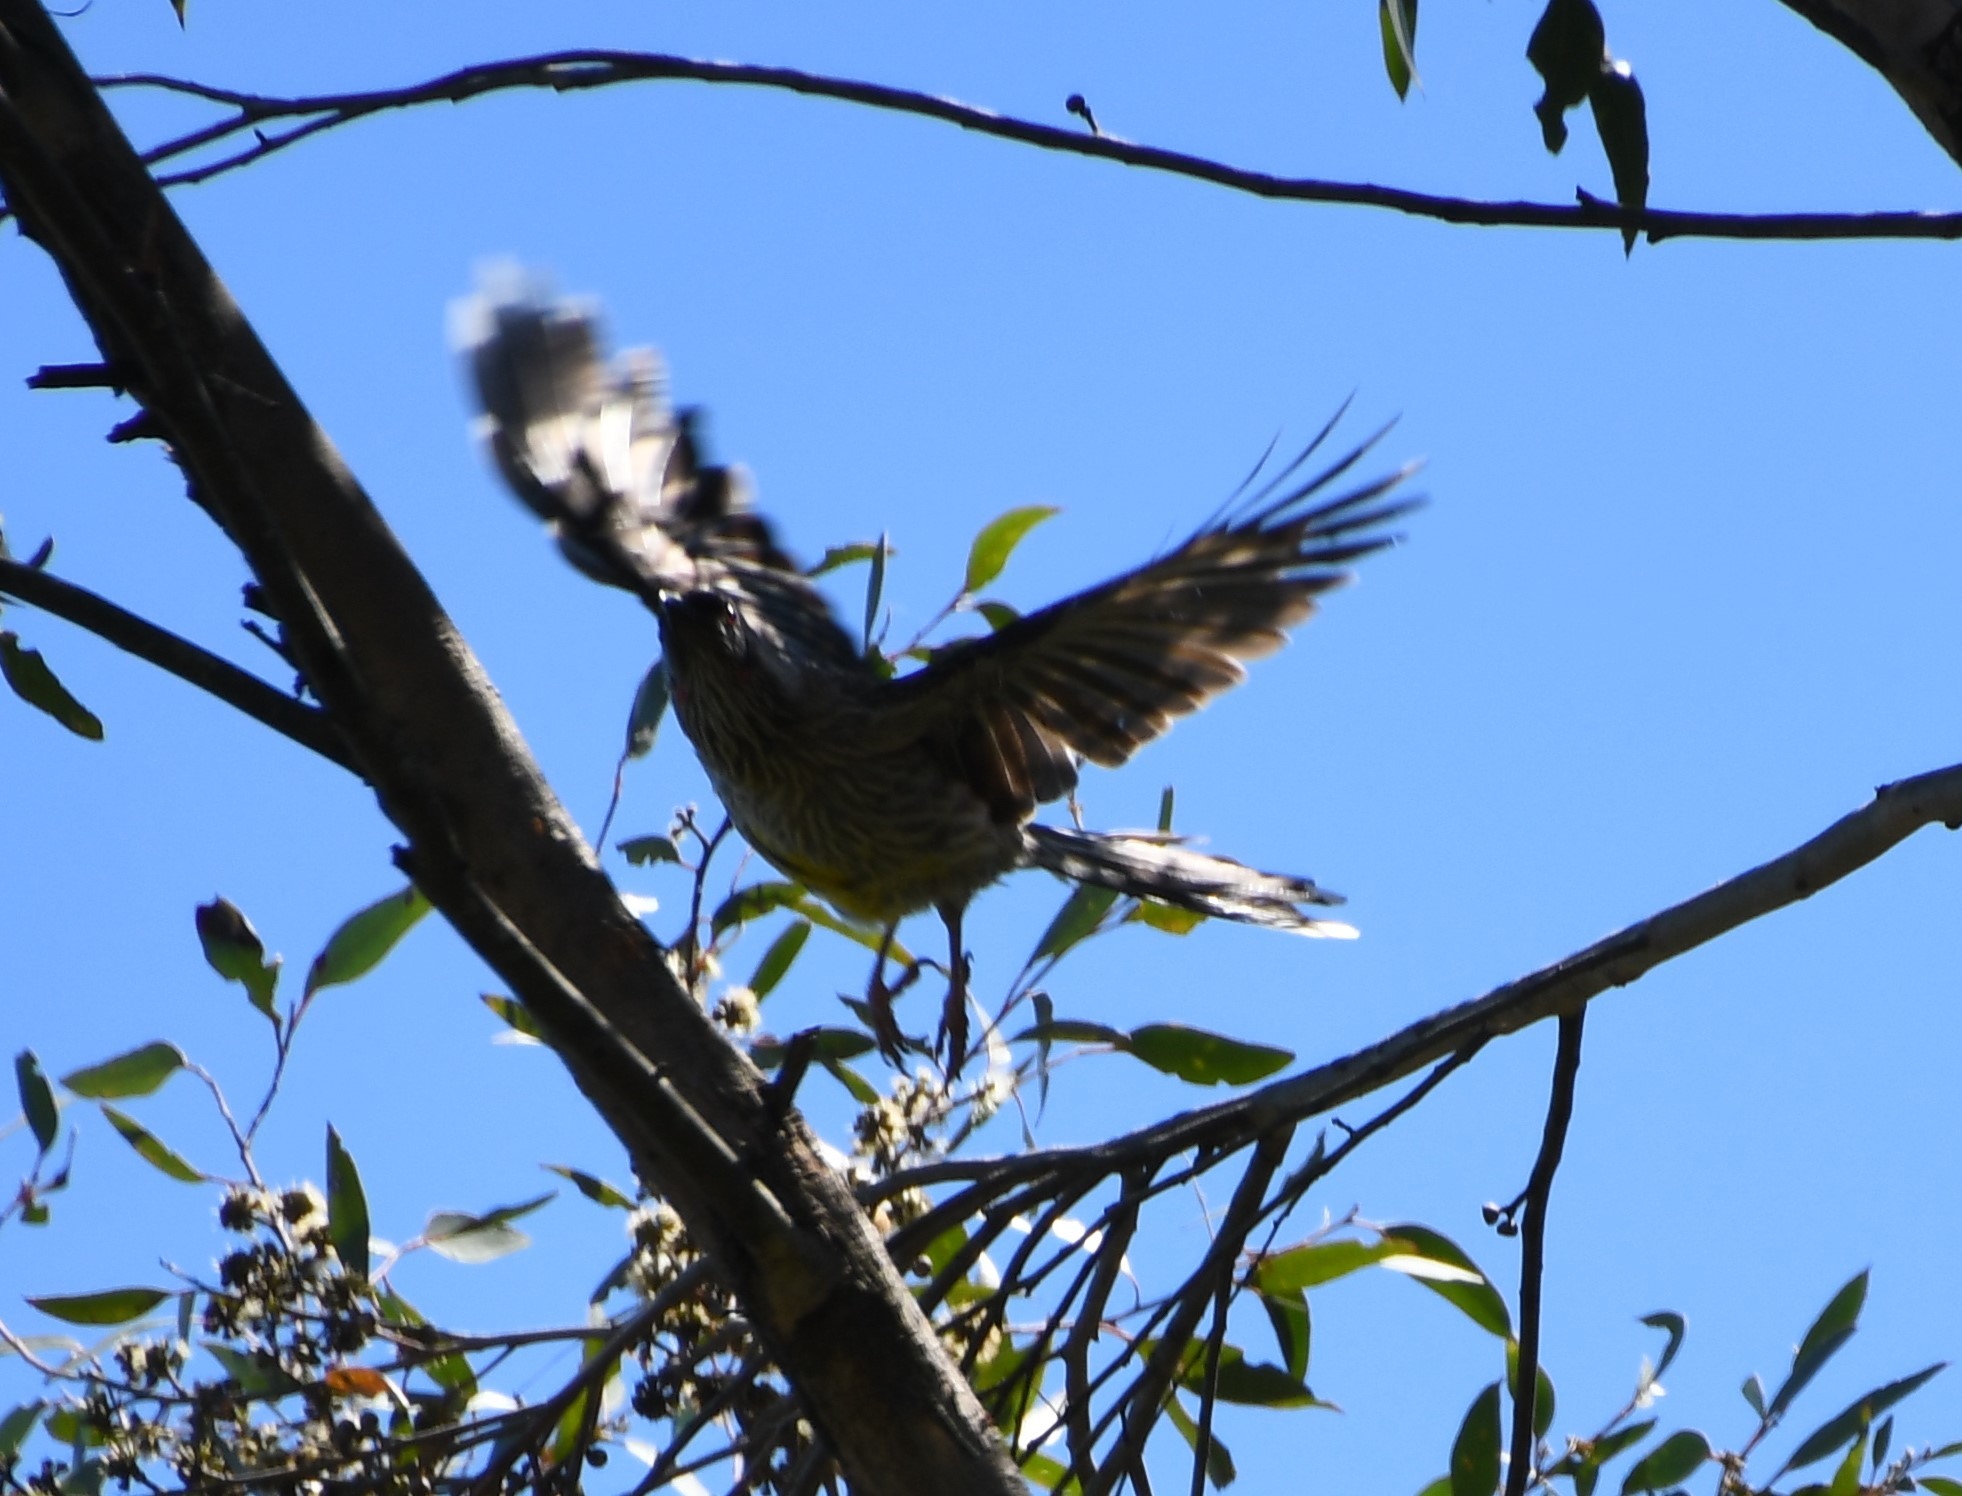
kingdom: Animalia
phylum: Chordata
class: Aves
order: Passeriformes
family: Meliphagidae
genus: Anthochaera
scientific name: Anthochaera carunculata
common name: Red wattlebird
